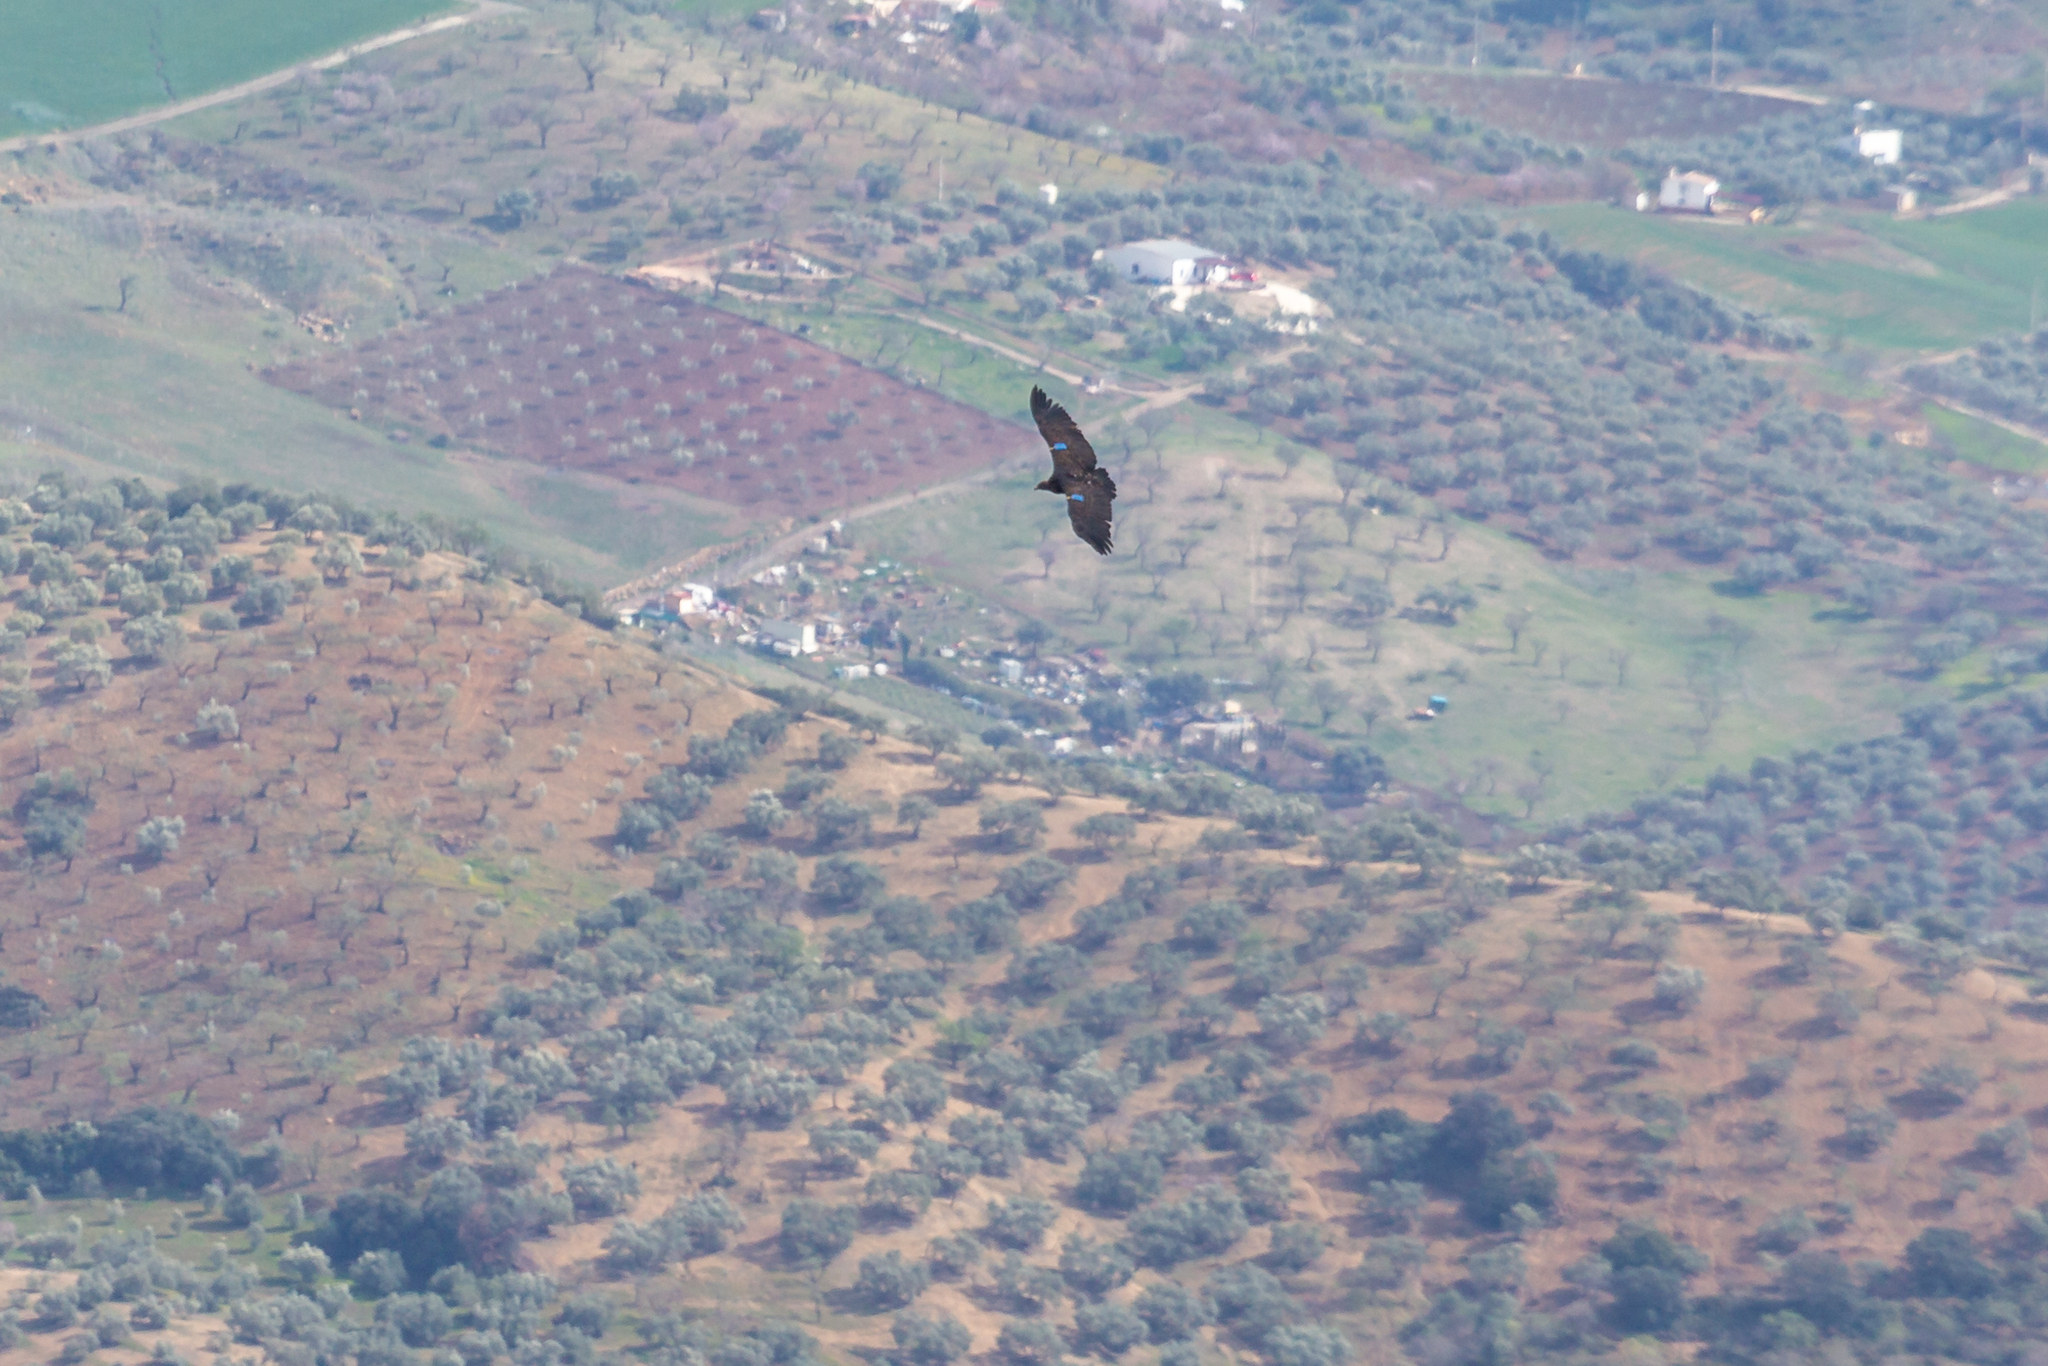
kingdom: Animalia
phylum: Chordata
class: Aves
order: Accipitriformes
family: Accipitridae
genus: Gyps
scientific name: Gyps rueppellii
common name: Rüppell's vulture
